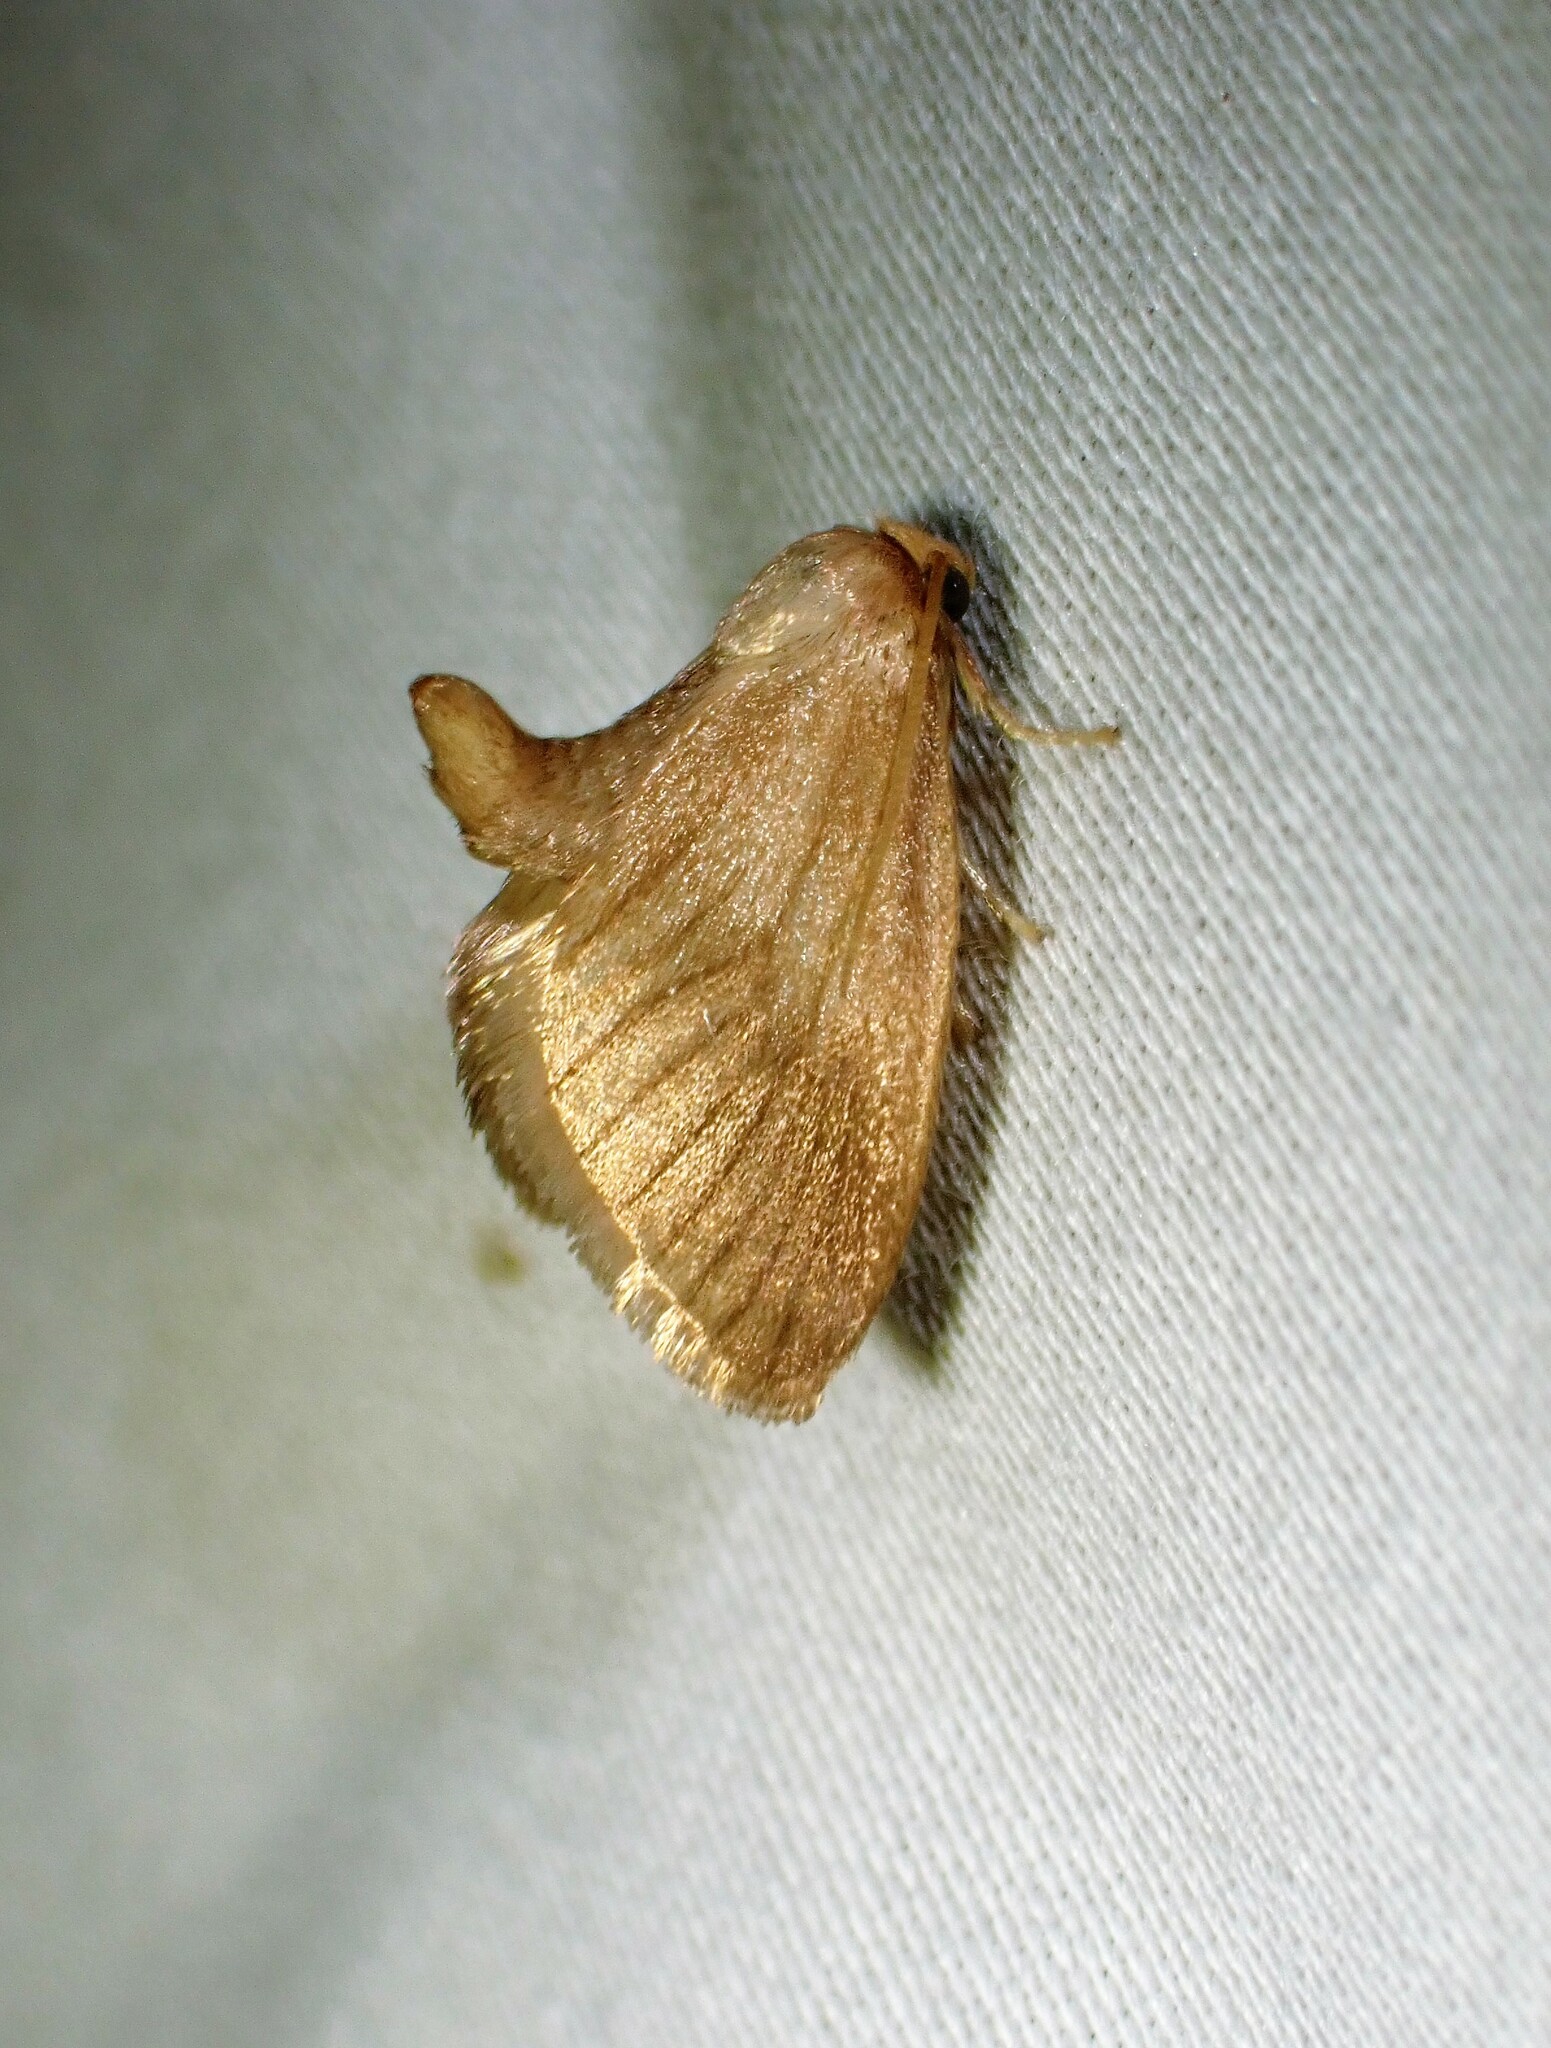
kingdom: Animalia
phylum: Arthropoda
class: Insecta
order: Lepidoptera
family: Limacodidae
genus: Tortricidia
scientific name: Tortricidia testacea
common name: Early button slug moth
